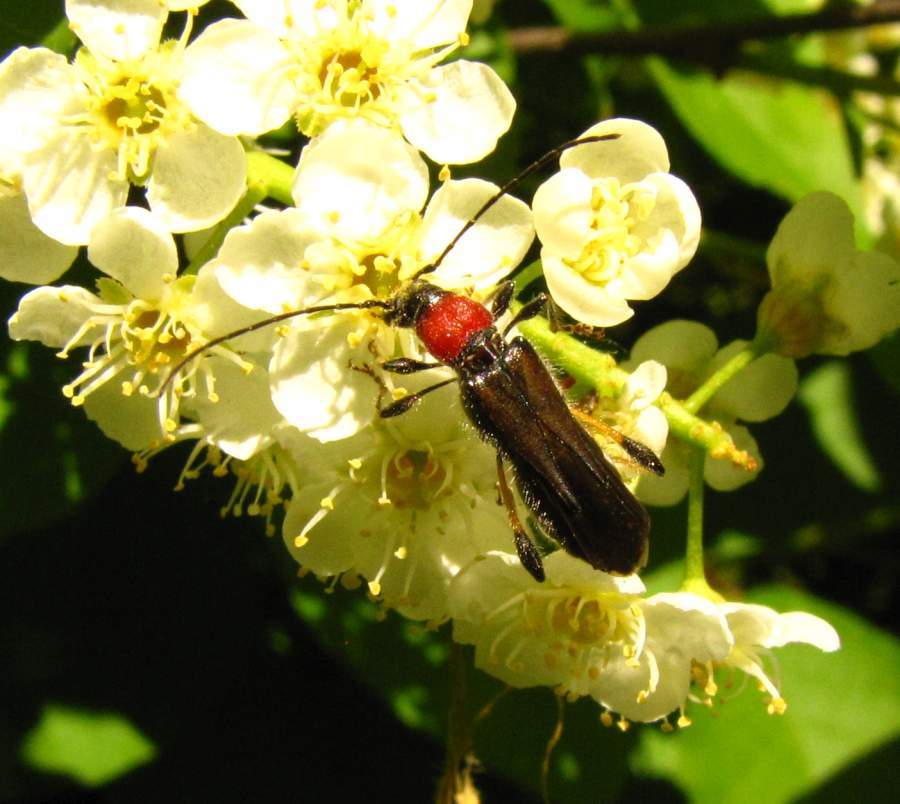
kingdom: Animalia
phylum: Arthropoda
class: Insecta
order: Coleoptera
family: Cerambycidae
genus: Callimoxys
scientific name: Callimoxys sanguinicollis
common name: Blood-necked longhorn beetle
